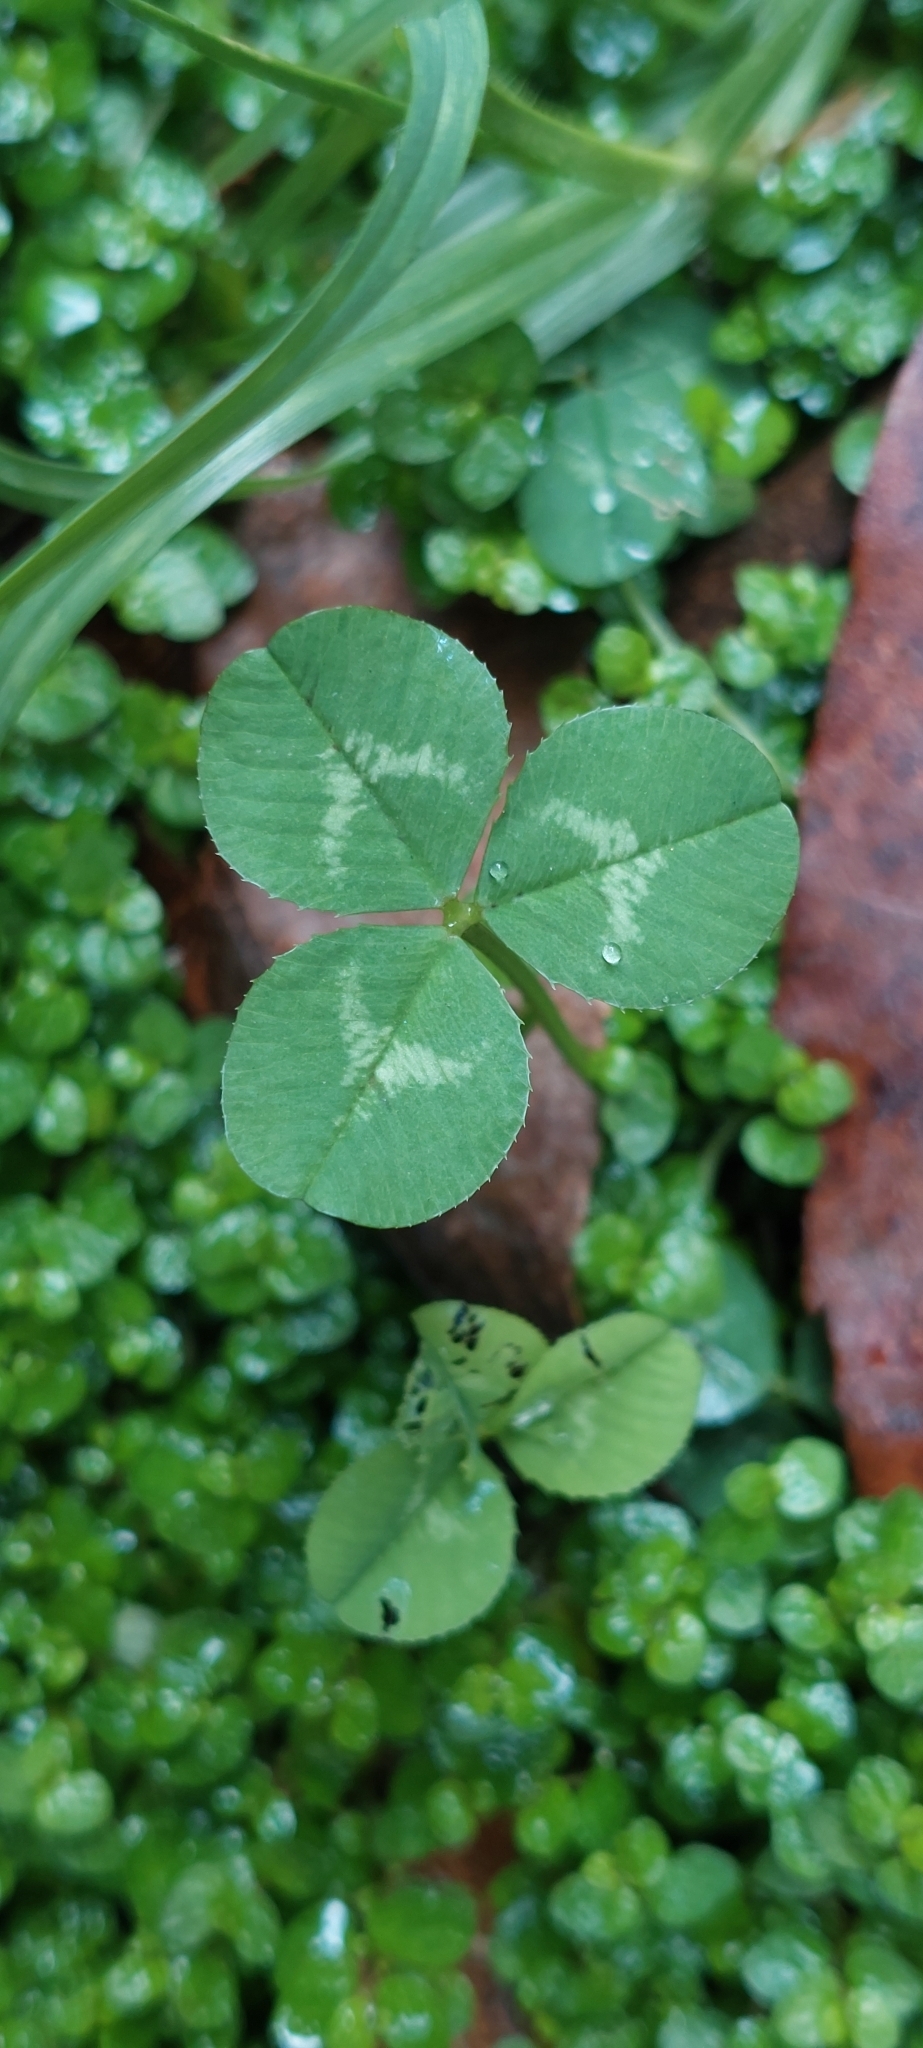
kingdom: Plantae
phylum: Tracheophyta
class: Magnoliopsida
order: Fabales
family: Fabaceae
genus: Trifolium
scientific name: Trifolium repens
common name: White clover
